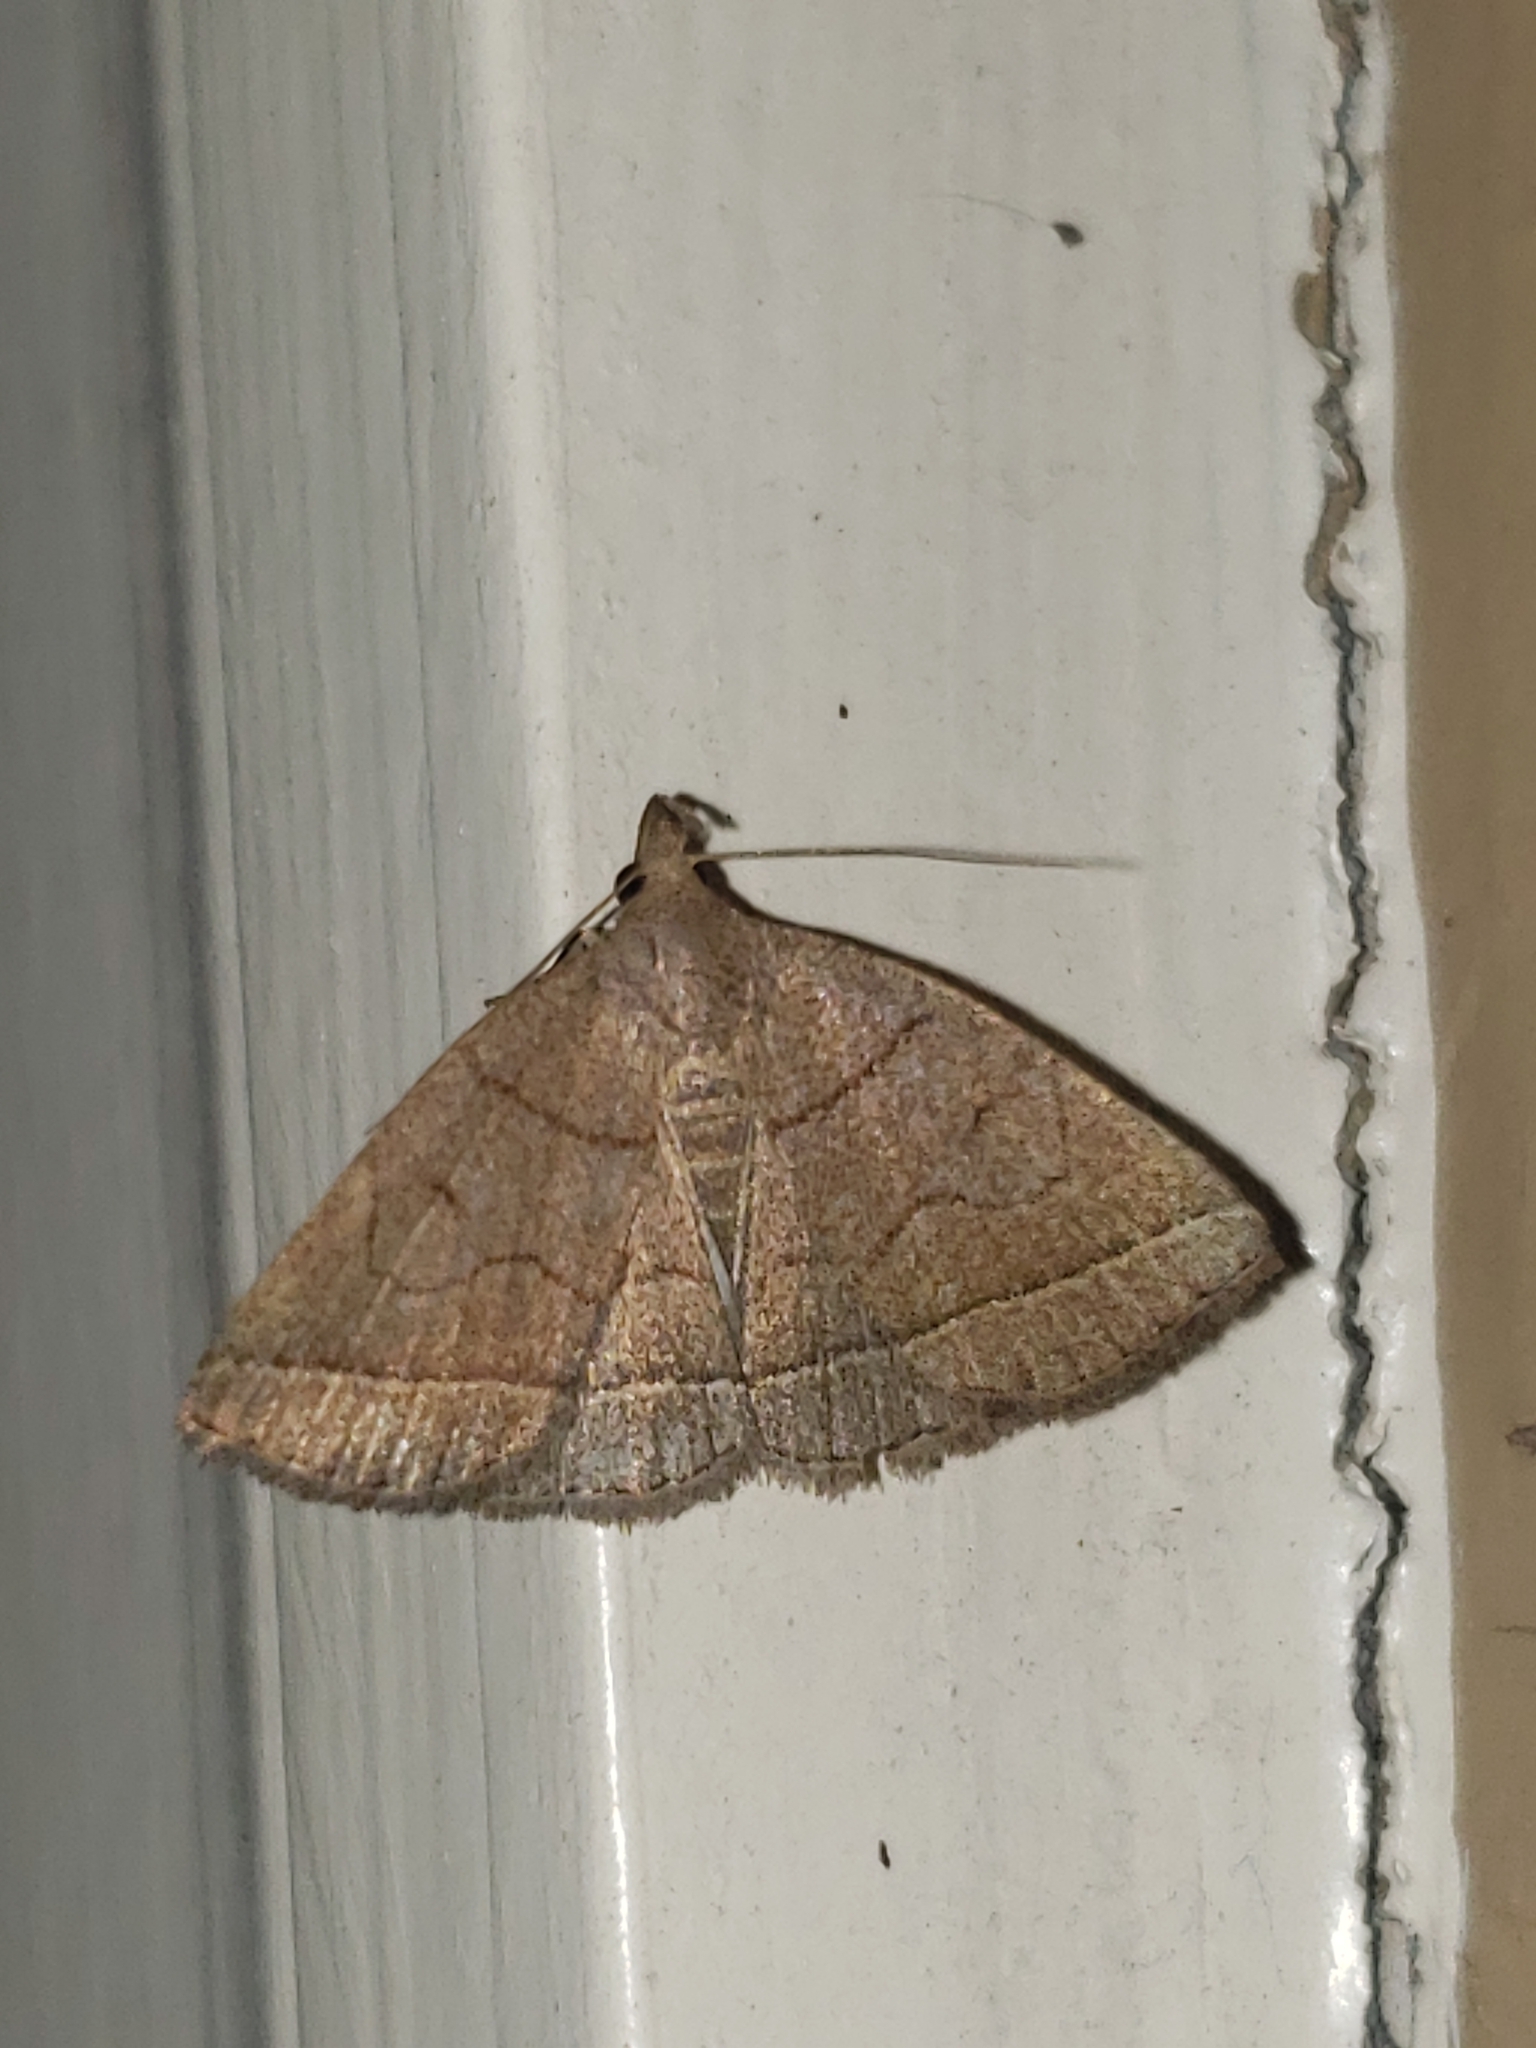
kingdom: Animalia
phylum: Arthropoda
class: Insecta
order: Lepidoptera
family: Erebidae
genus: Zanclognatha
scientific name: Zanclognatha cruralis
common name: Early fan-foot
